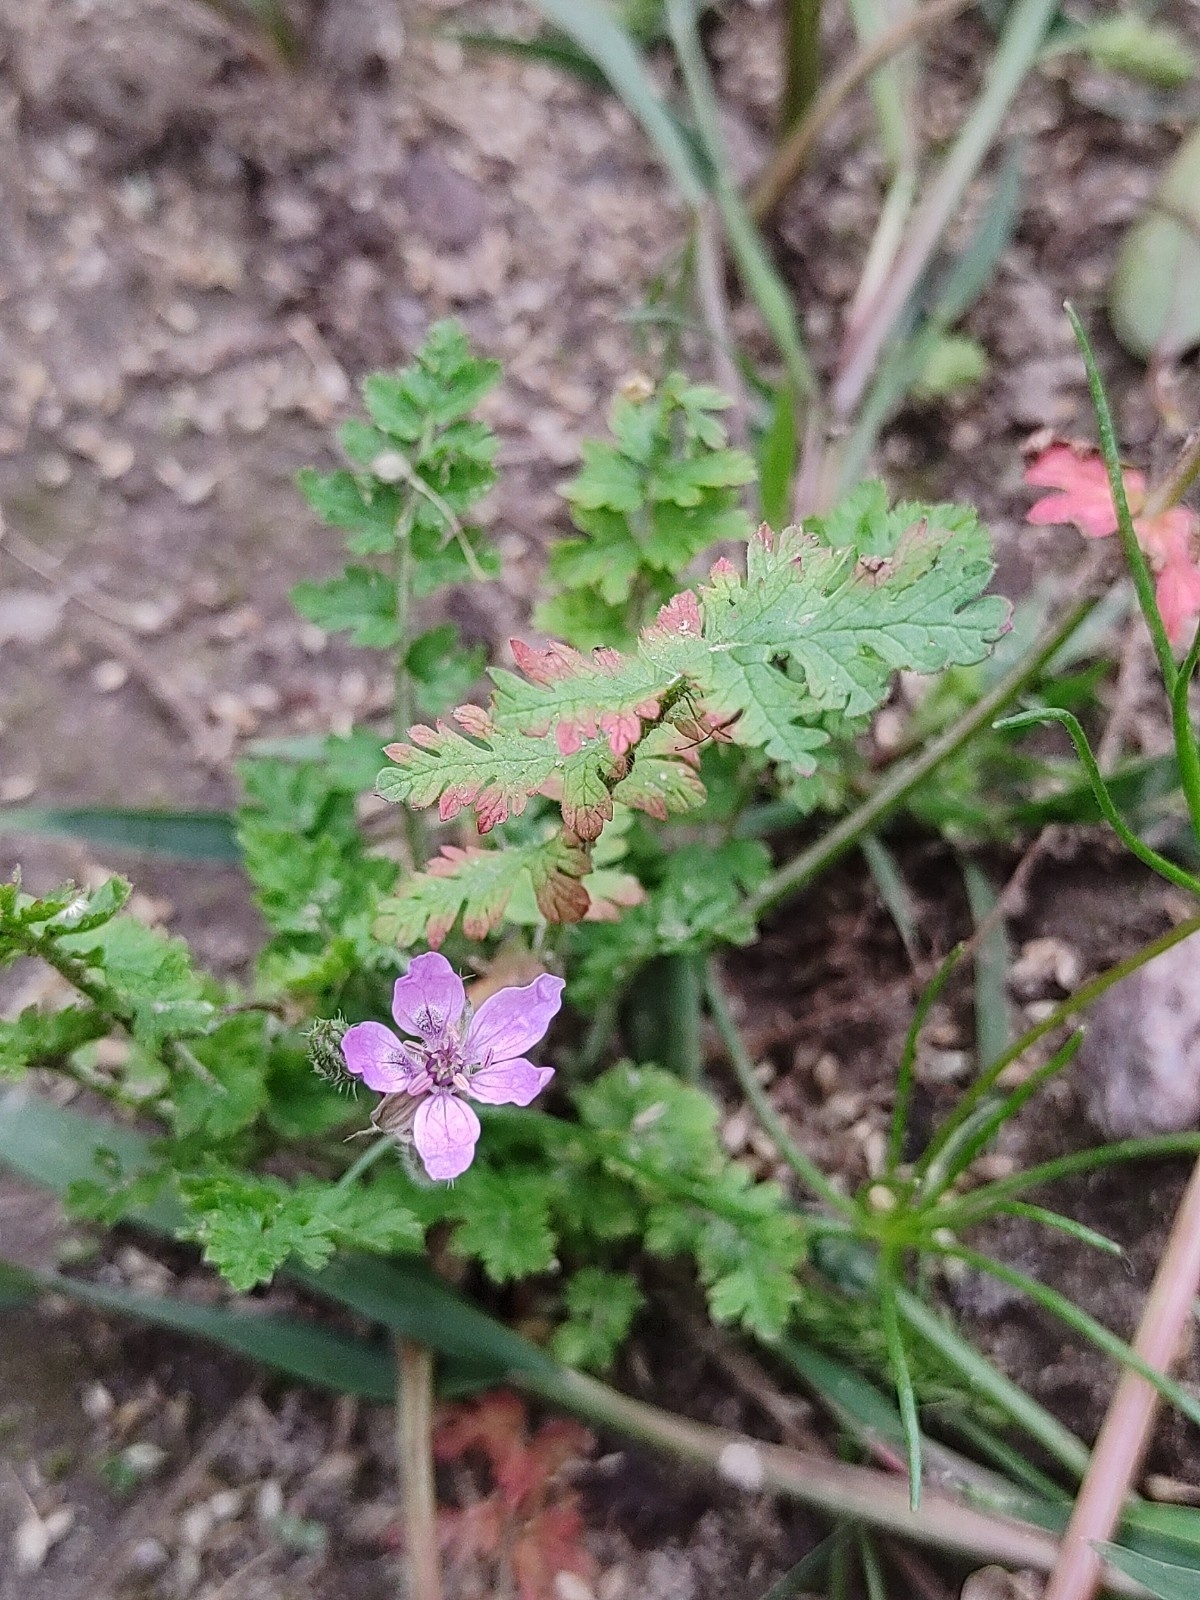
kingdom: Plantae
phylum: Tracheophyta
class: Magnoliopsida
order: Geraniales
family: Geraniaceae
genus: Erodium
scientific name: Erodium cicutarium
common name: Common stork's-bill
